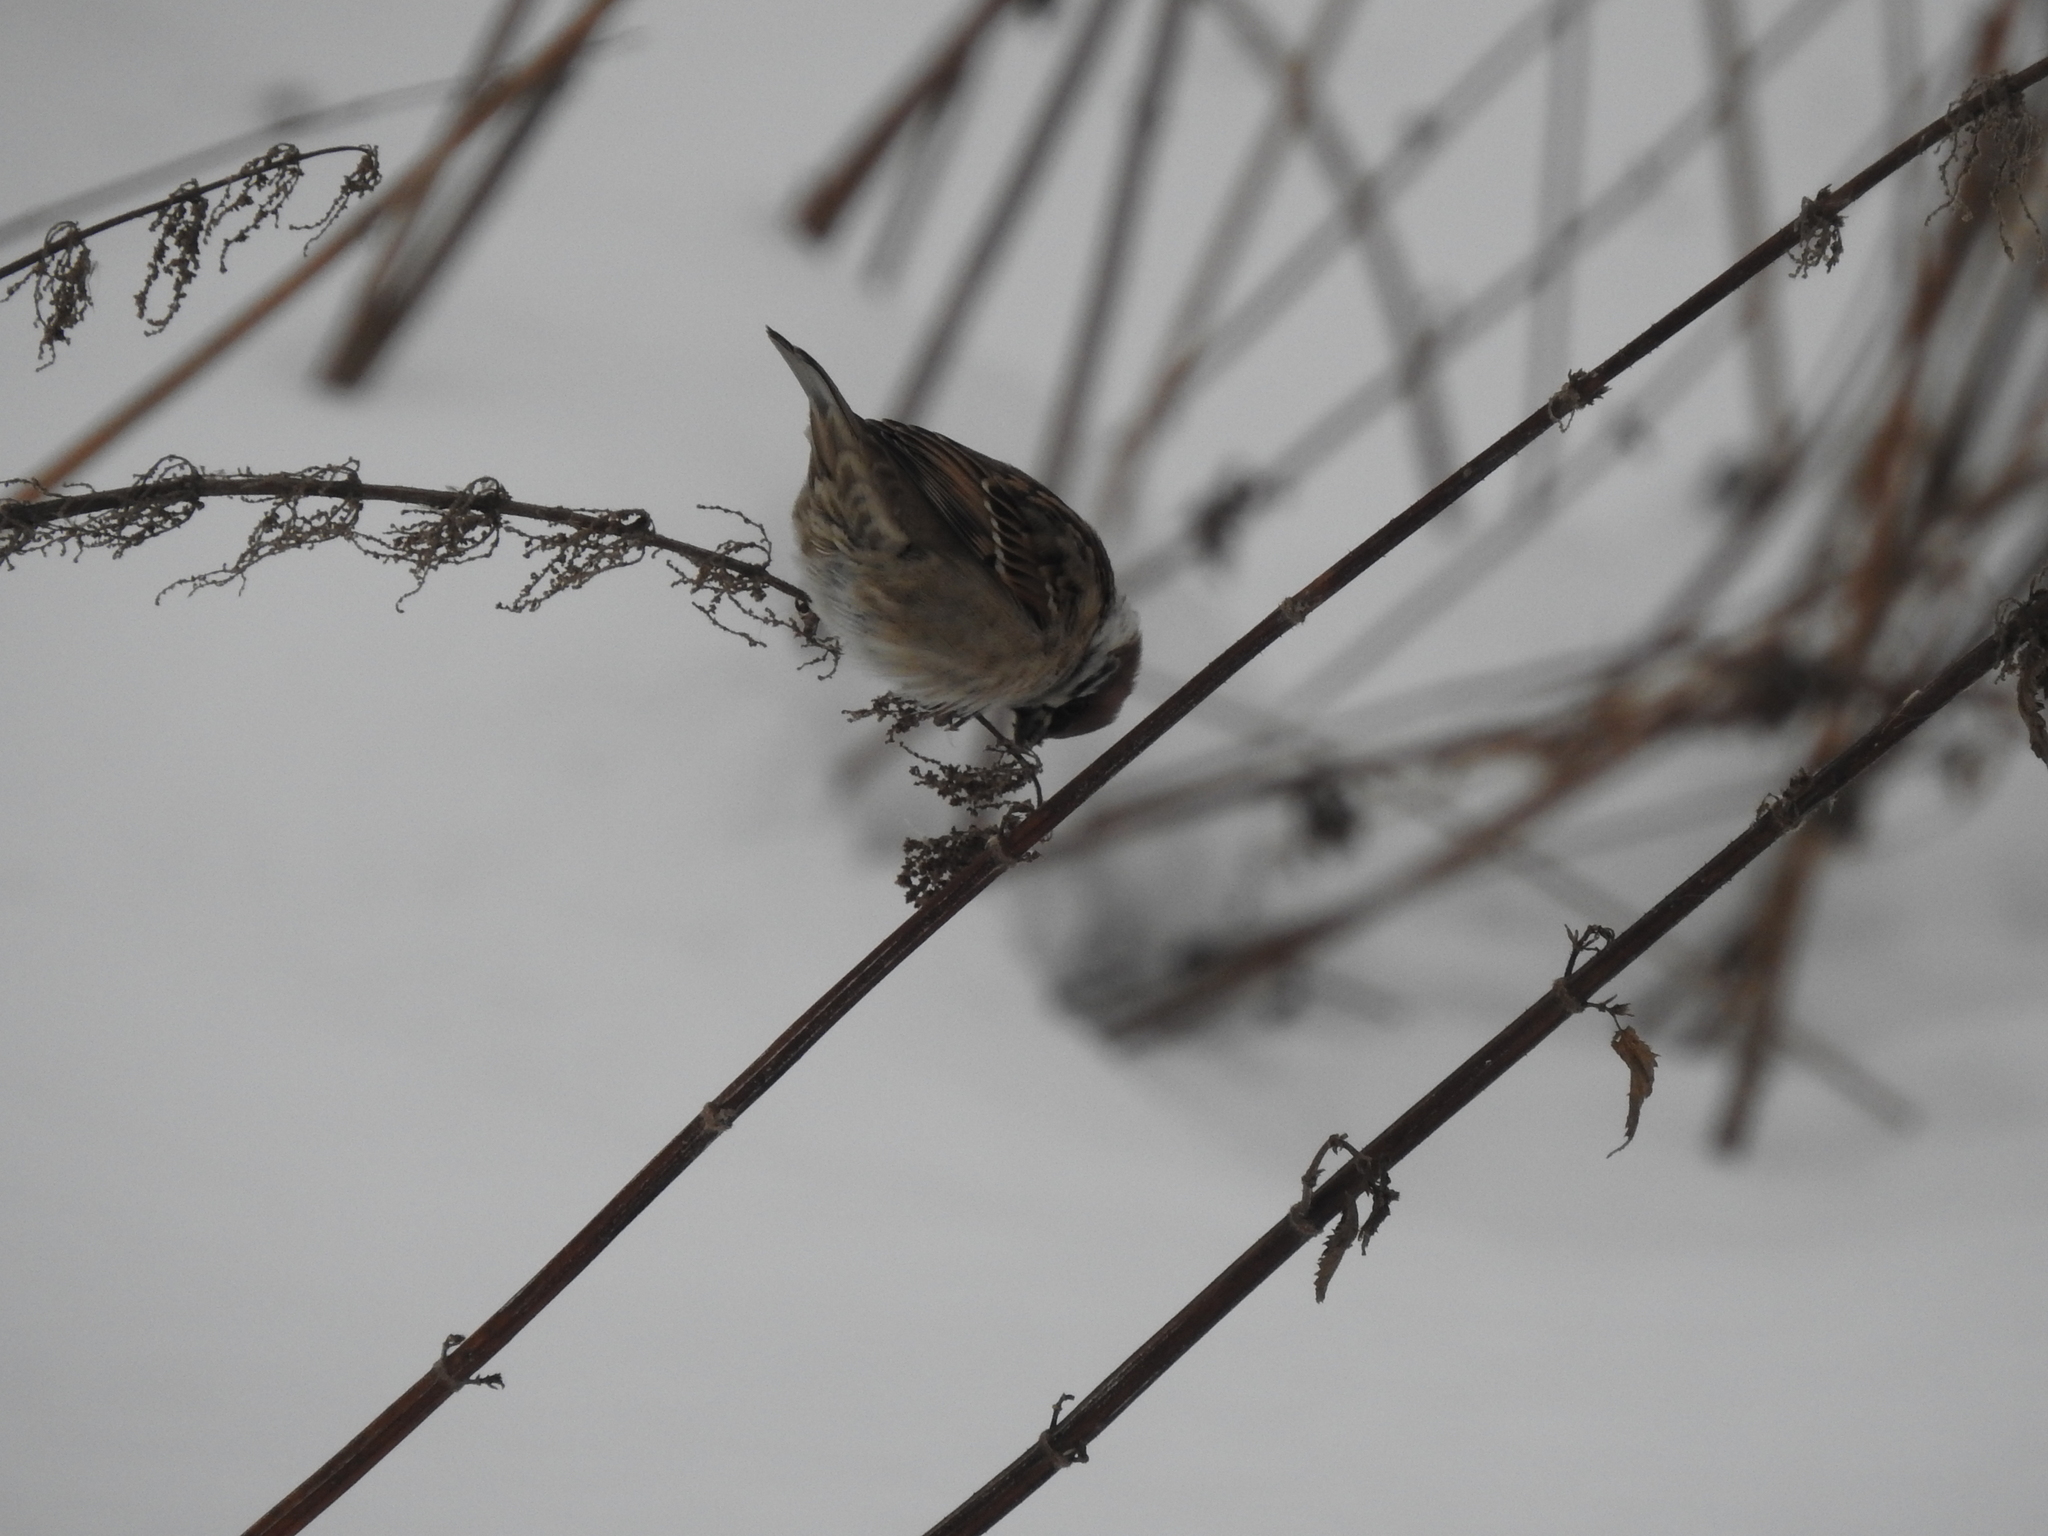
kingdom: Animalia
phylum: Chordata
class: Aves
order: Passeriformes
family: Passeridae
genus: Passer
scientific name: Passer montanus
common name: Eurasian tree sparrow
